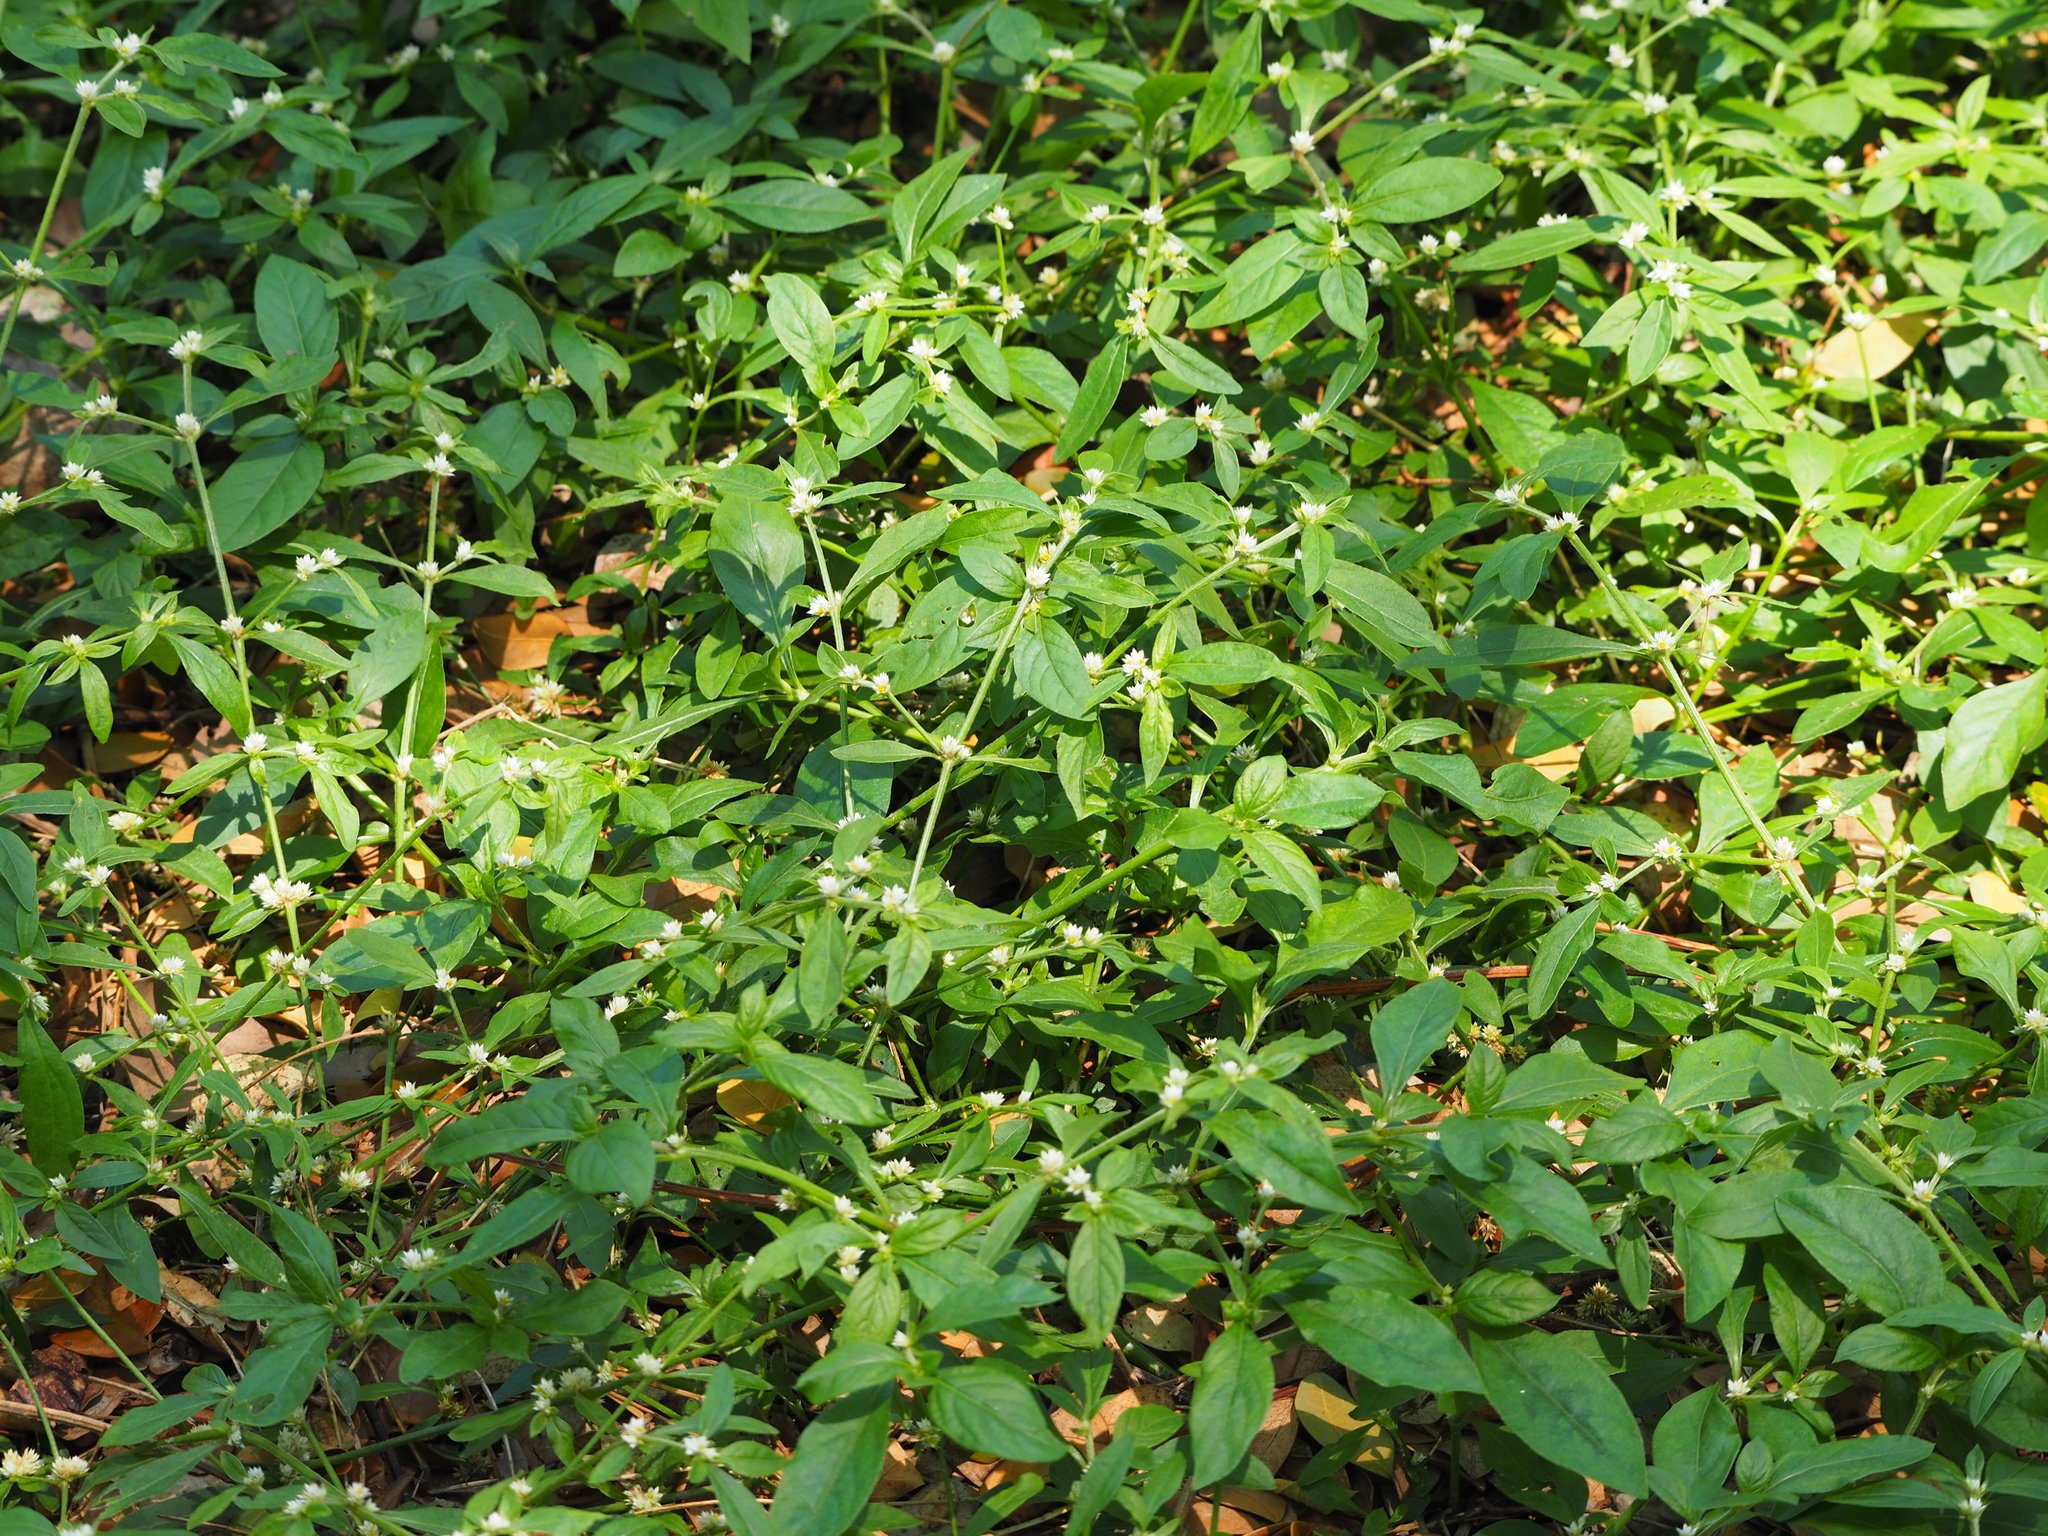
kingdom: Plantae
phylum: Tracheophyta
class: Magnoliopsida
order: Caryophyllales
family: Amaranthaceae
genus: Alternanthera
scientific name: Alternanthera bettzickiana
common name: Calico-plant
